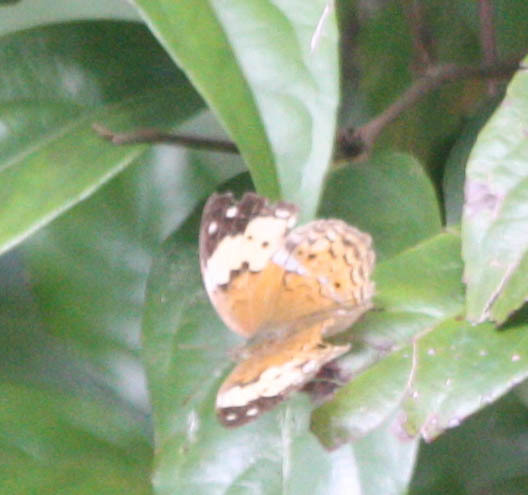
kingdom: Animalia
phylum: Arthropoda
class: Insecta
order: Lepidoptera
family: Nymphalidae
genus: Cupha
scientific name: Cupha erymanthis
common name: Rustic
